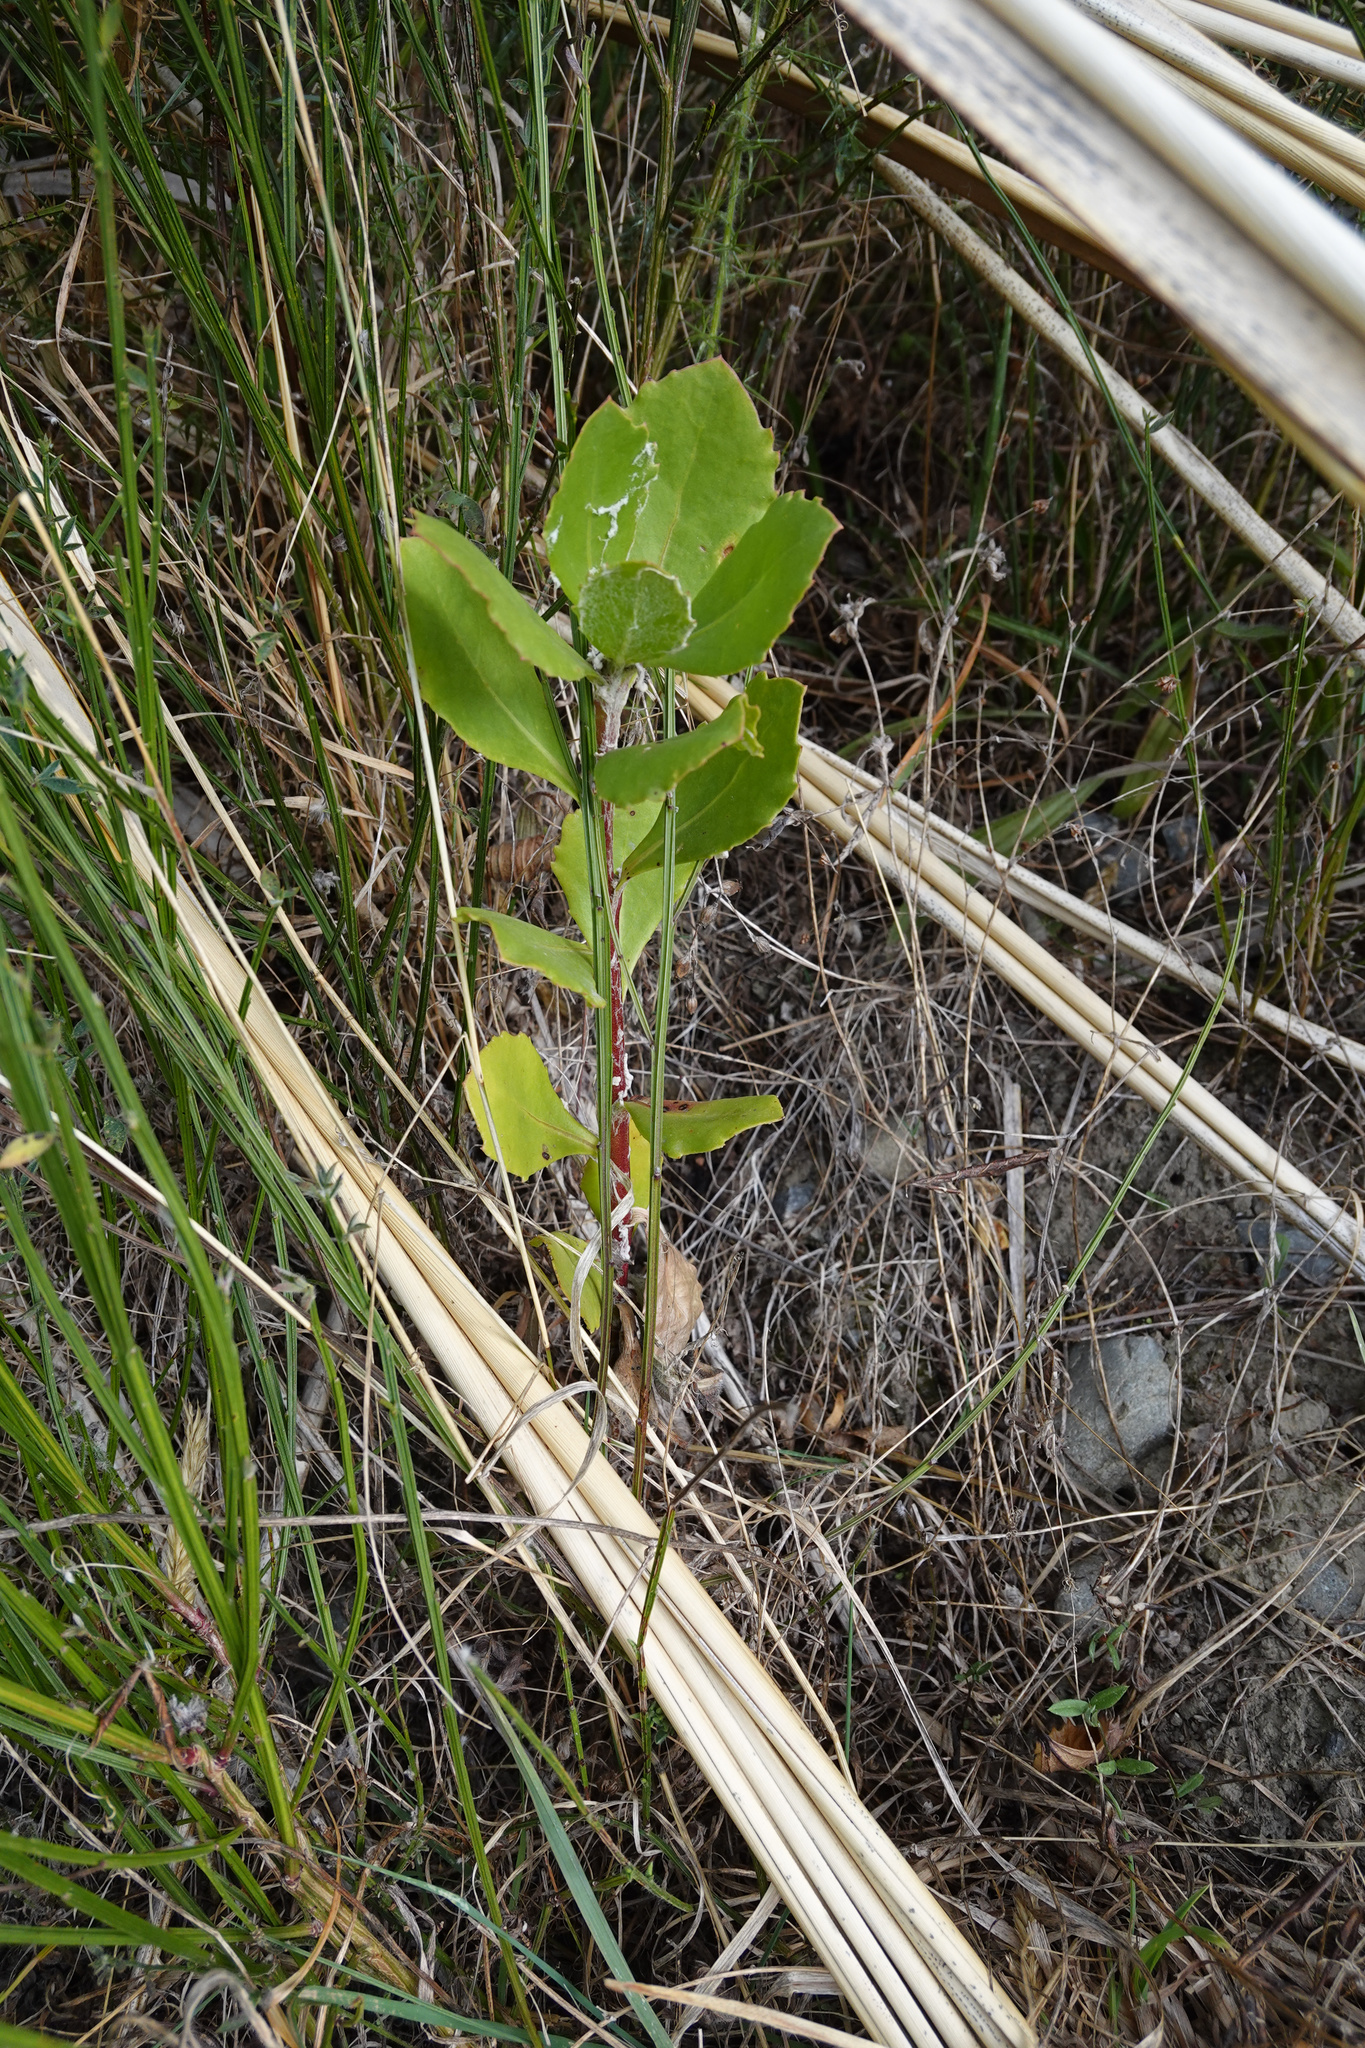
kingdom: Plantae
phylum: Tracheophyta
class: Magnoliopsida
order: Asterales
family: Asteraceae
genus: Osteospermum
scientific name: Osteospermum moniliferum
